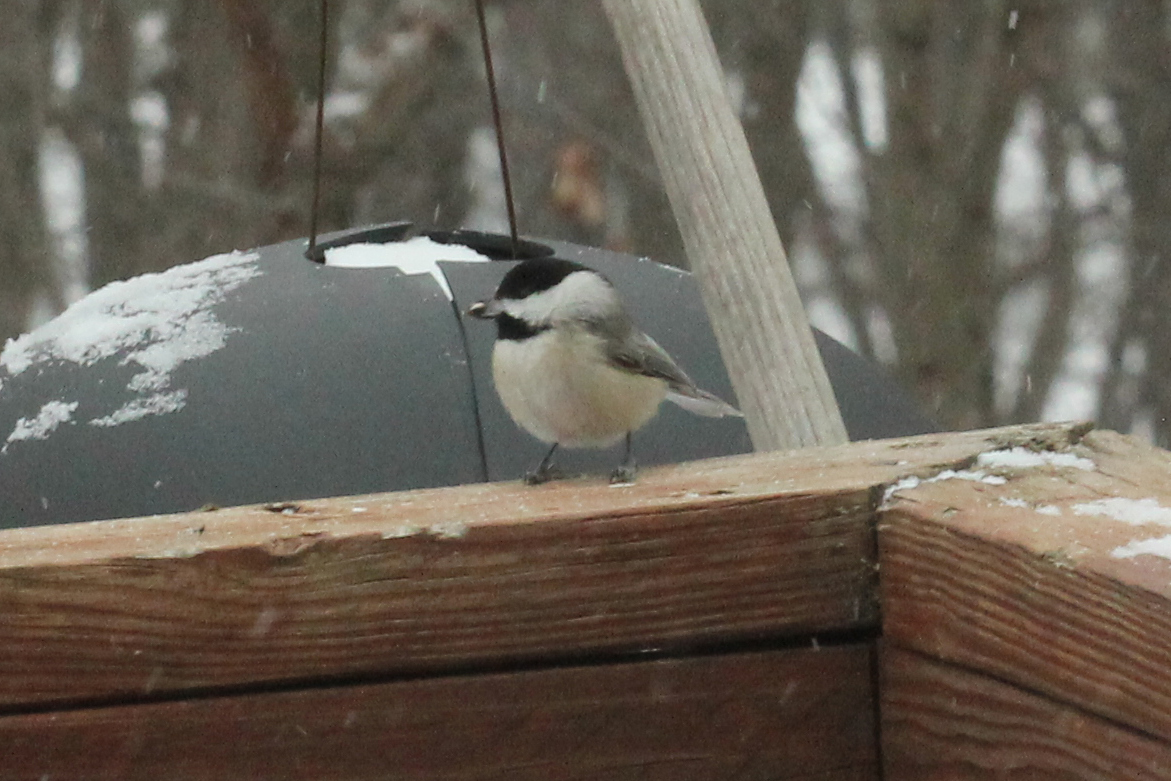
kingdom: Animalia
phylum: Chordata
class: Aves
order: Passeriformes
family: Paridae
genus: Poecile
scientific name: Poecile carolinensis
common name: Carolina chickadee
